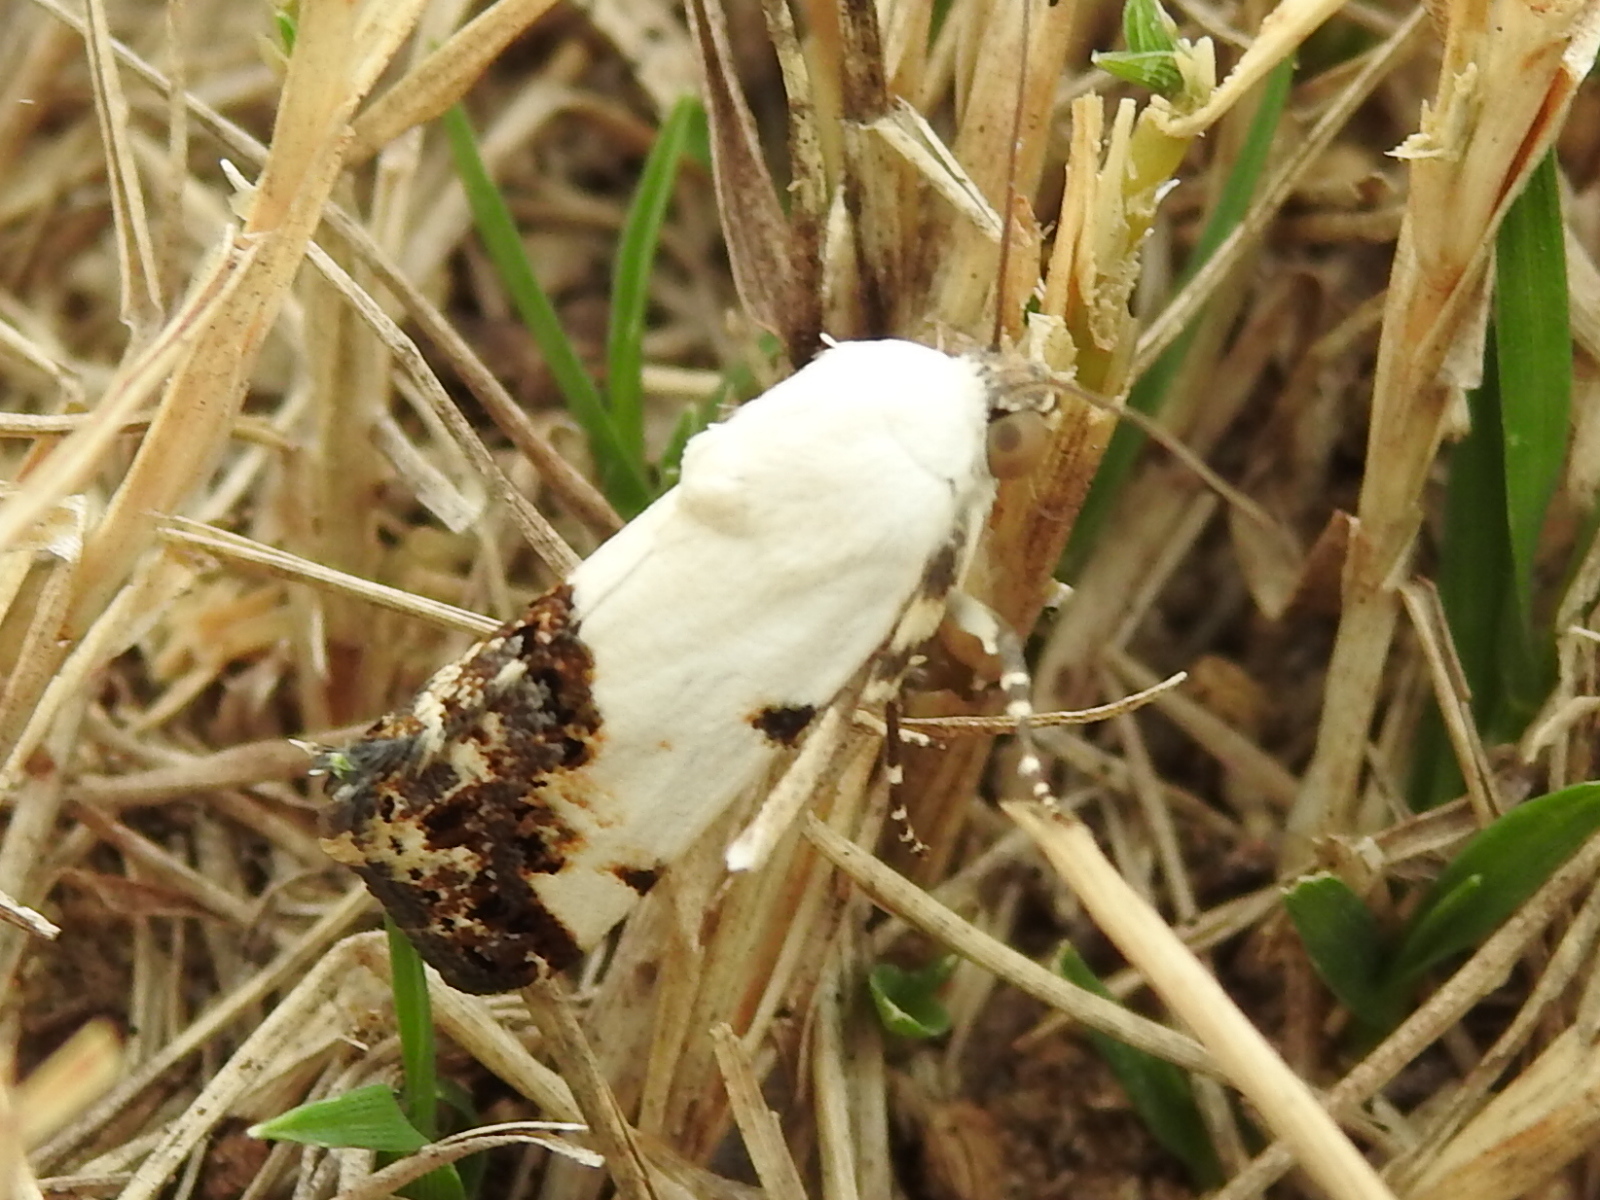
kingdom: Animalia
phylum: Arthropoda
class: Insecta
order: Lepidoptera
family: Noctuidae
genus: Acontia
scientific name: Acontia aprica
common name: Nun
